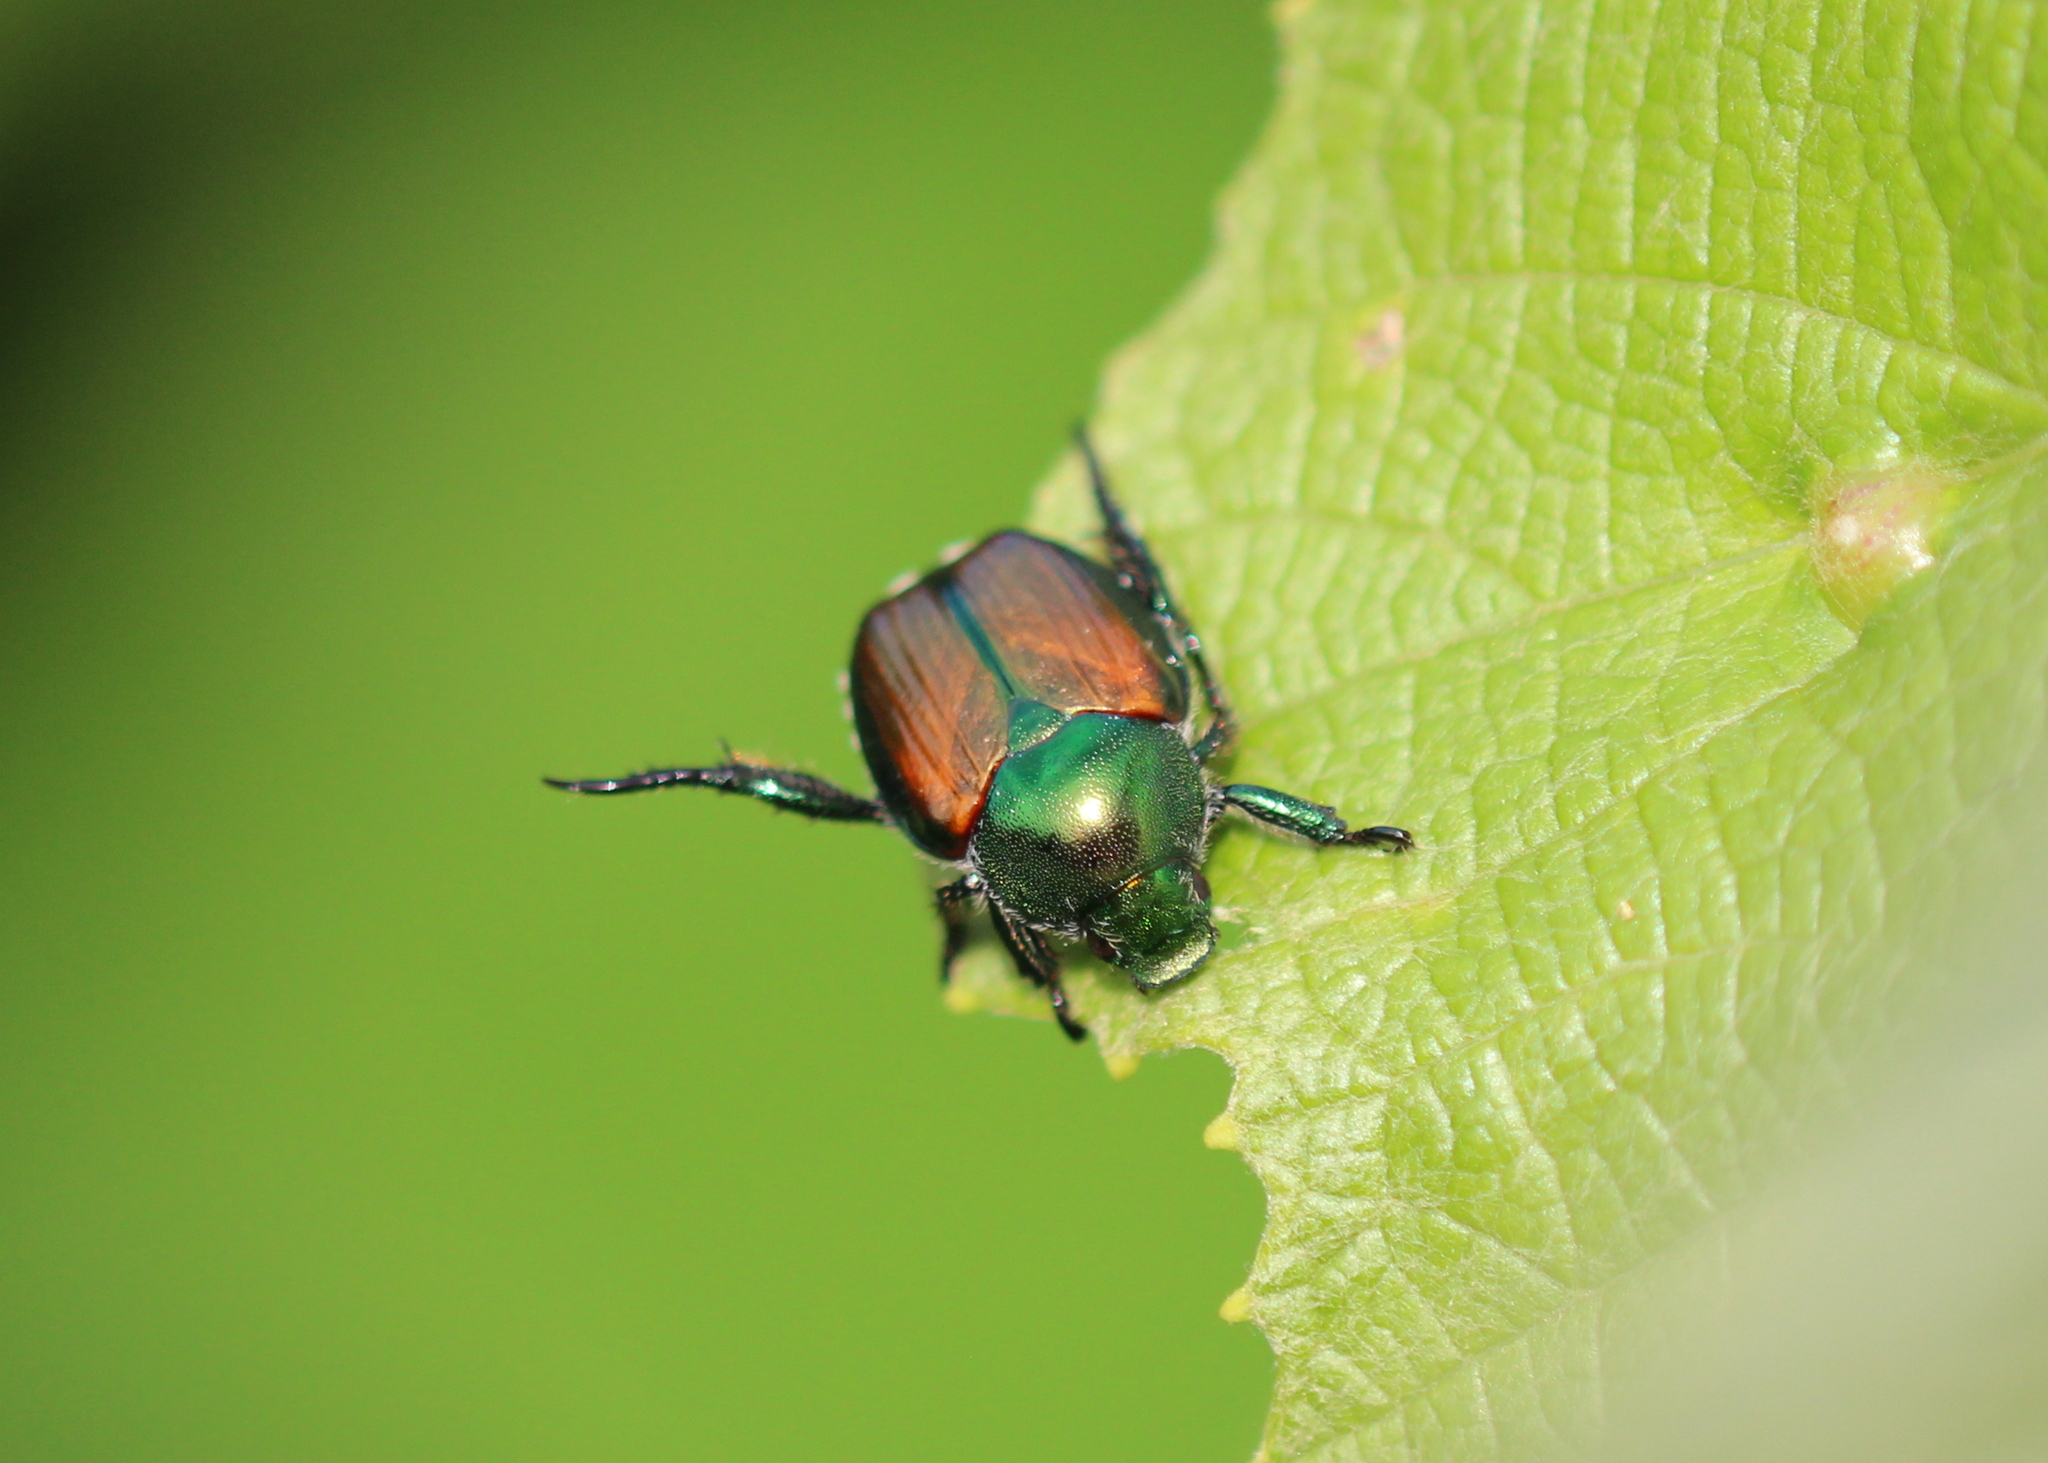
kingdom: Animalia
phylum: Arthropoda
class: Insecta
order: Coleoptera
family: Scarabaeidae
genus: Popillia
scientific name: Popillia japonica
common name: Japanese beetle
